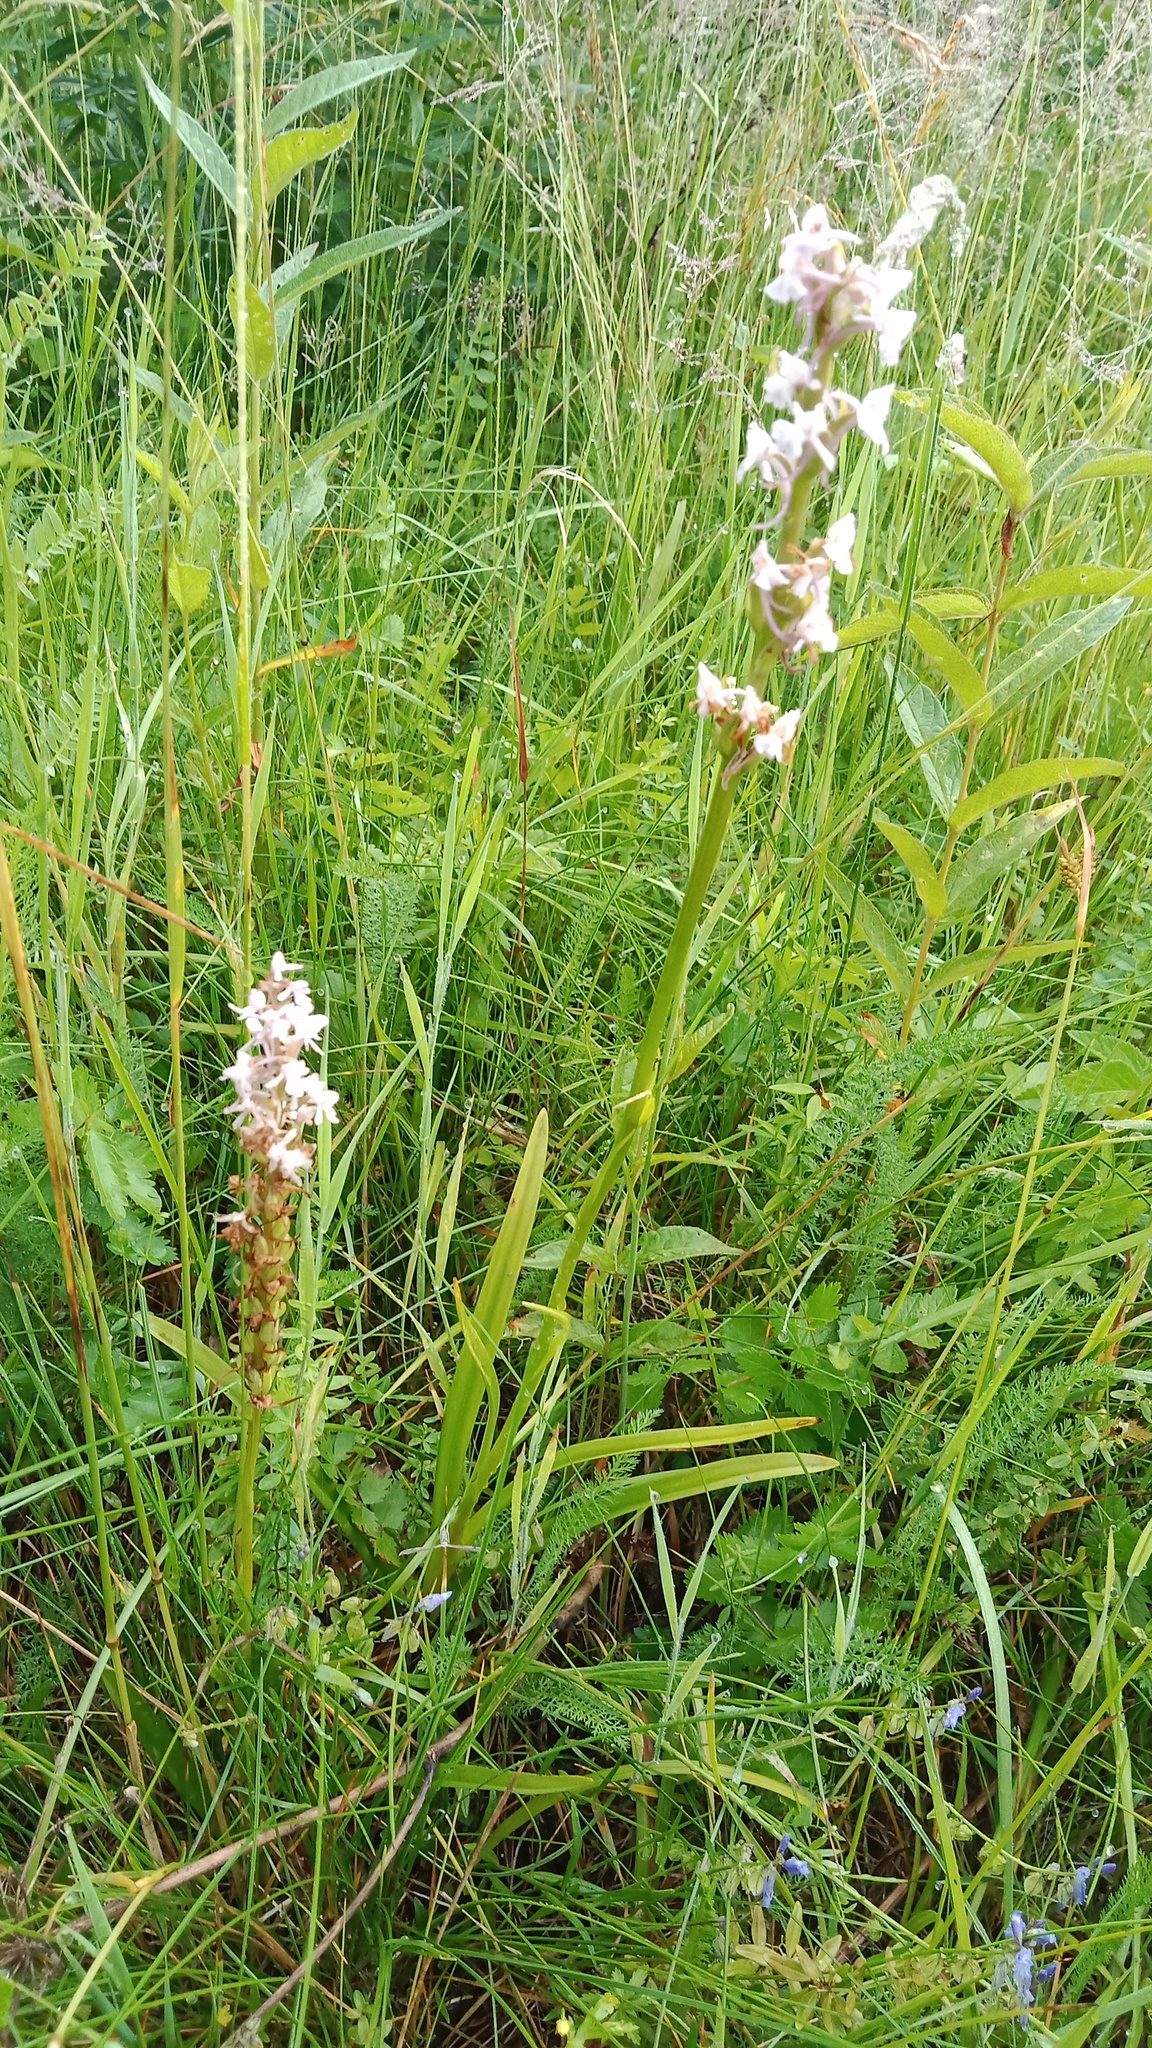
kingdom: Plantae
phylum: Tracheophyta
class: Liliopsida
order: Asparagales
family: Orchidaceae
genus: Gymnadenia
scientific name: Gymnadenia conopsea
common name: Fragrant orchid
